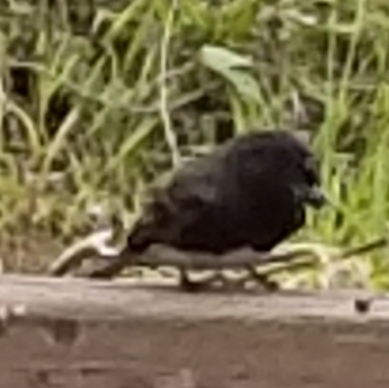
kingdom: Animalia
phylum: Chordata
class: Aves
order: Passeriformes
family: Tyrannidae
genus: Sayornis
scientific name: Sayornis nigricans
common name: Black phoebe
